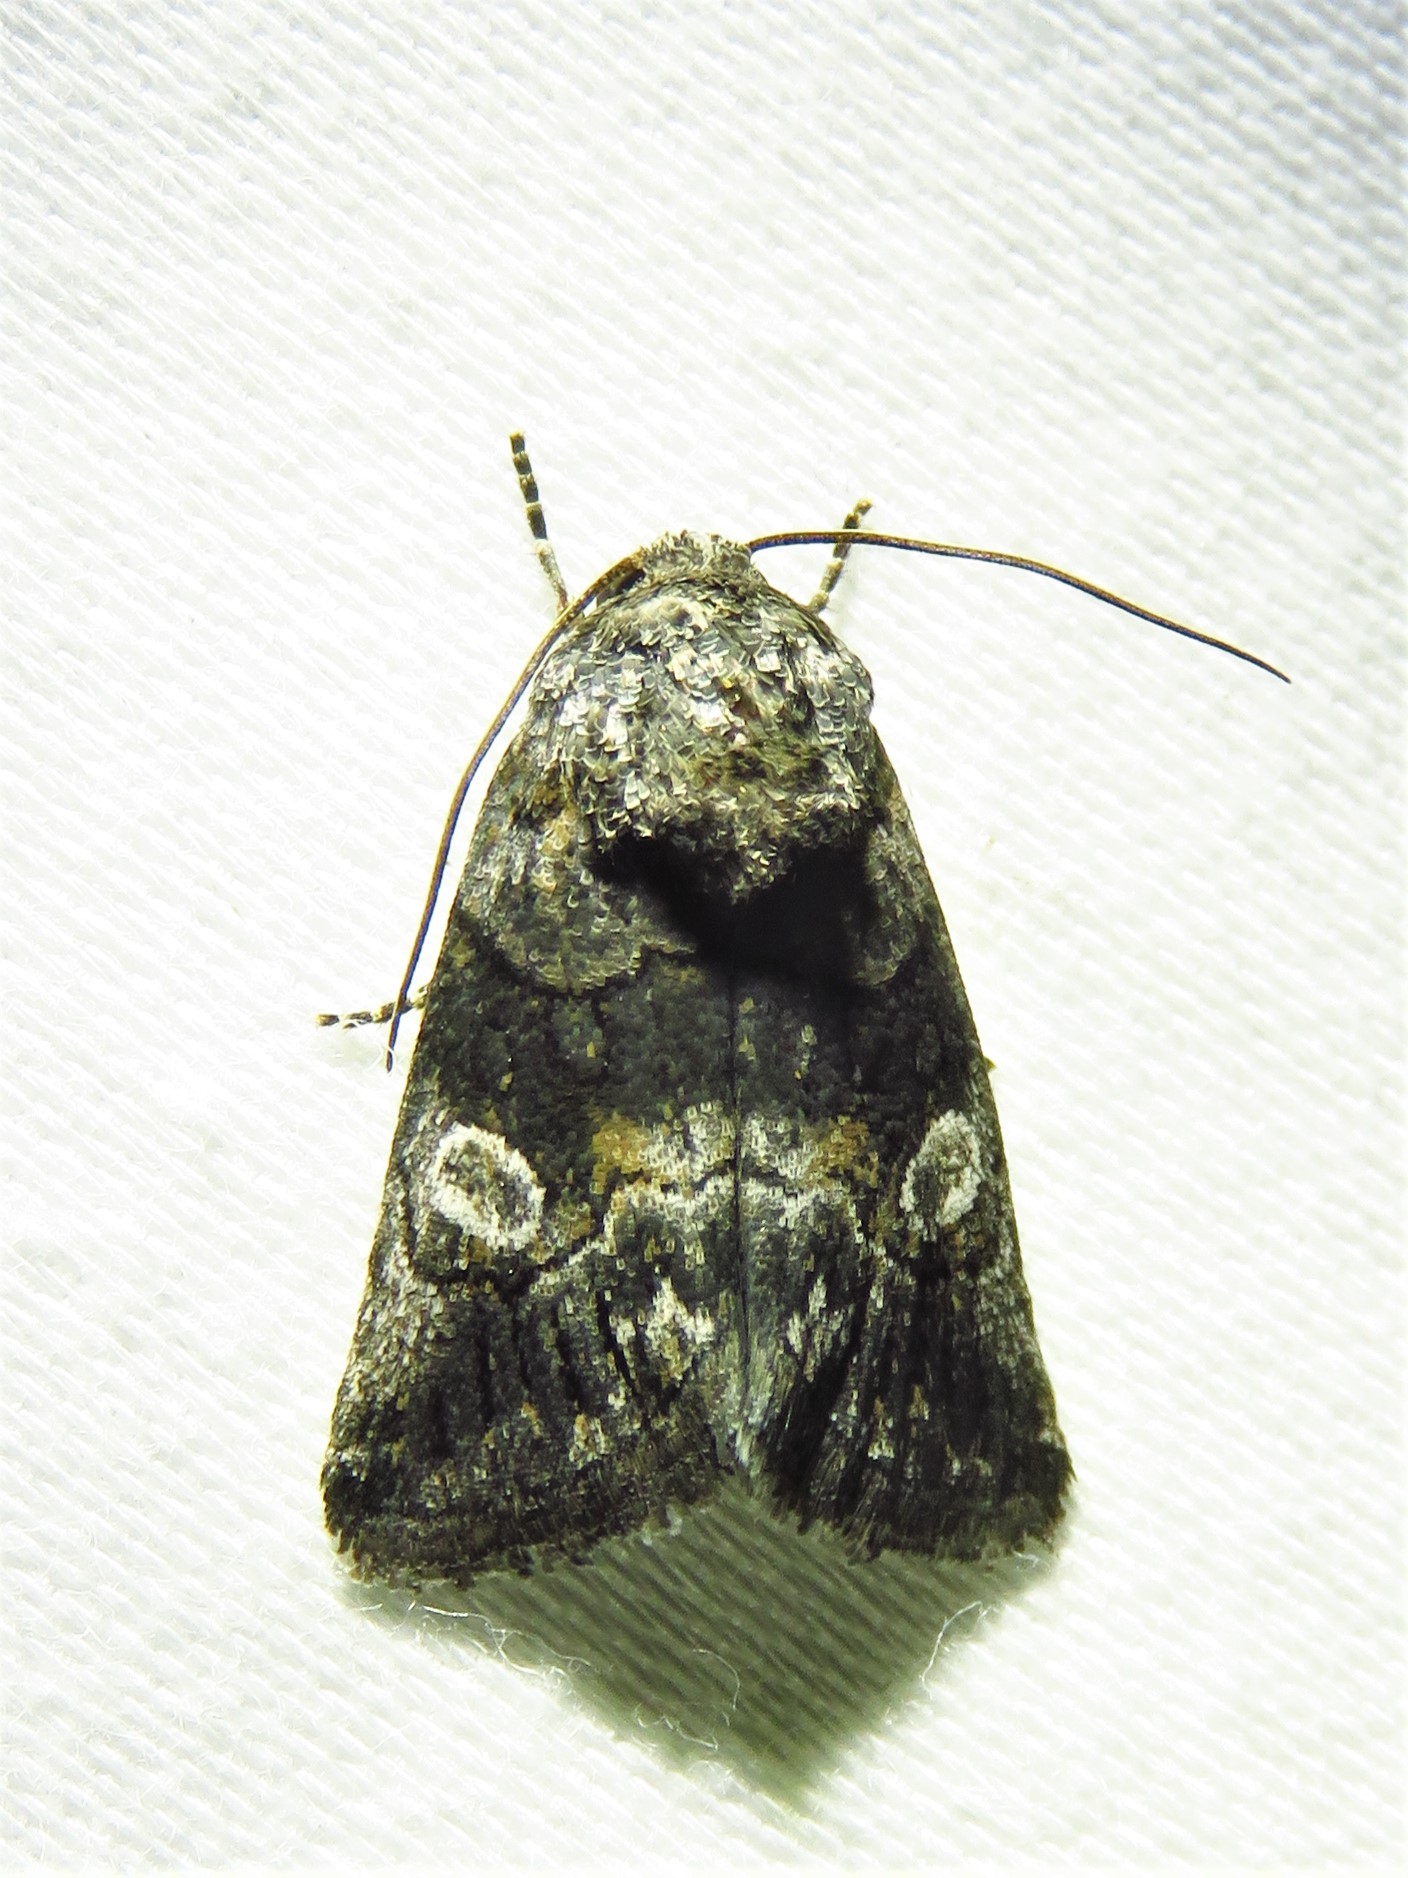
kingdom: Animalia
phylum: Arthropoda
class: Insecta
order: Lepidoptera
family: Noctuidae
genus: Copanarta
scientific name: Copanarta aurea
